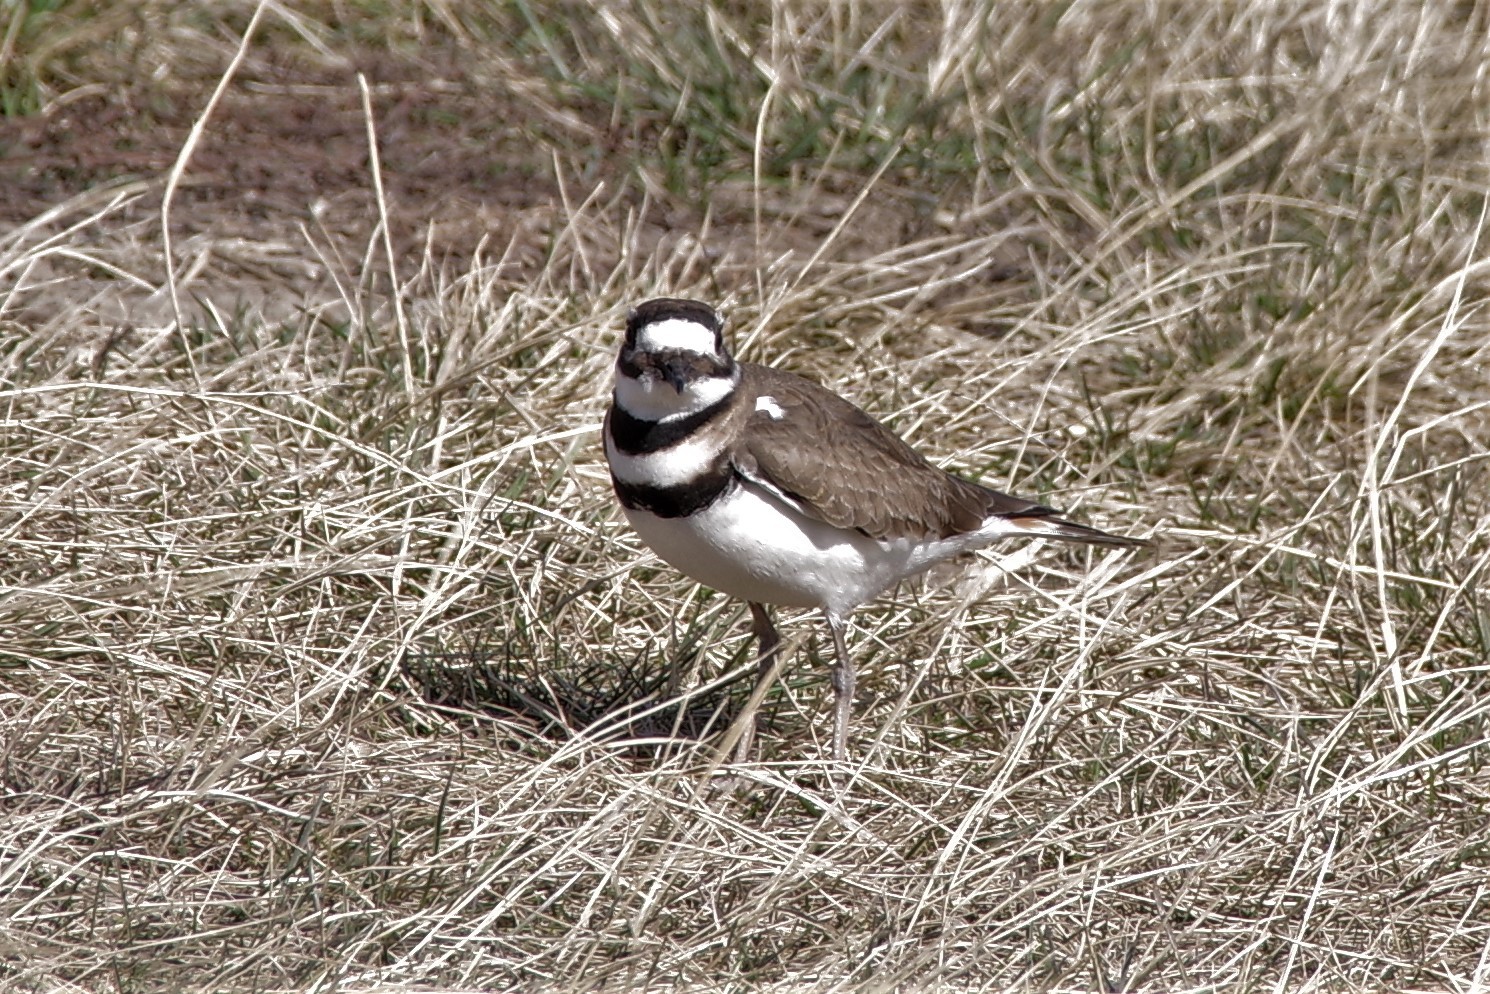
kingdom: Animalia
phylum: Chordata
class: Aves
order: Charadriiformes
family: Charadriidae
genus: Charadrius
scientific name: Charadrius vociferus
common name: Killdeer
